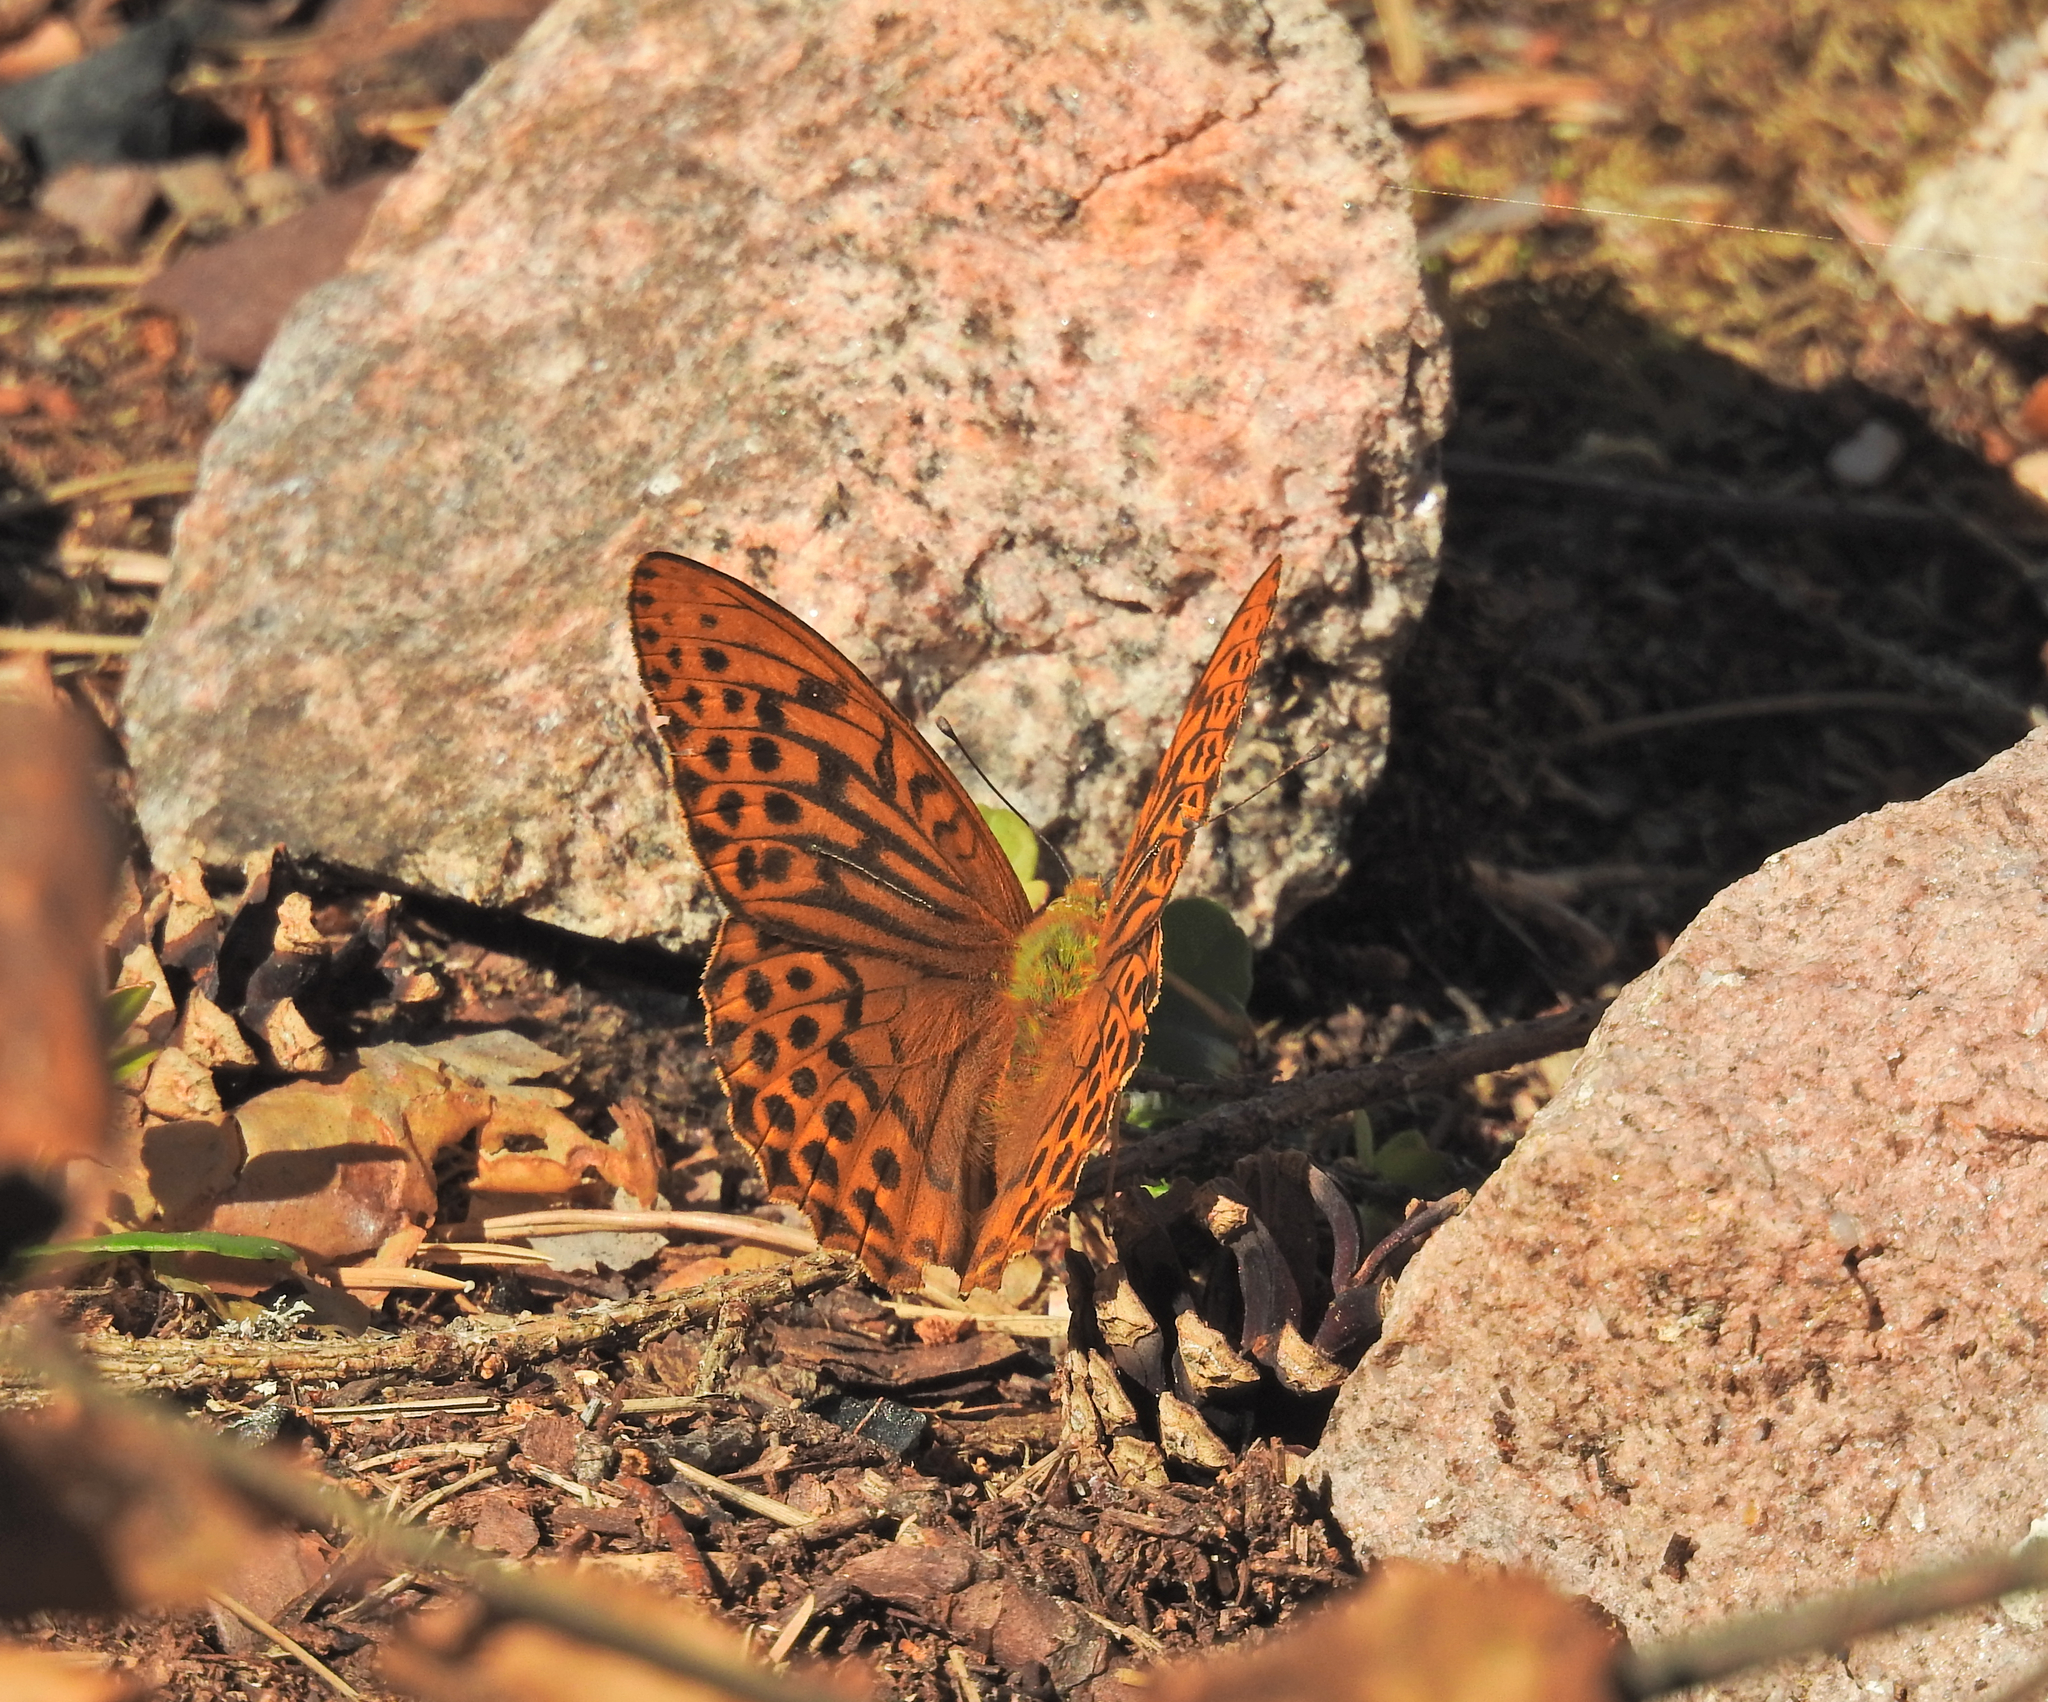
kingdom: Animalia
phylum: Arthropoda
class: Insecta
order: Lepidoptera
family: Nymphalidae
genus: Argynnis
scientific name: Argynnis paphia
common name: Silver-washed fritillary
